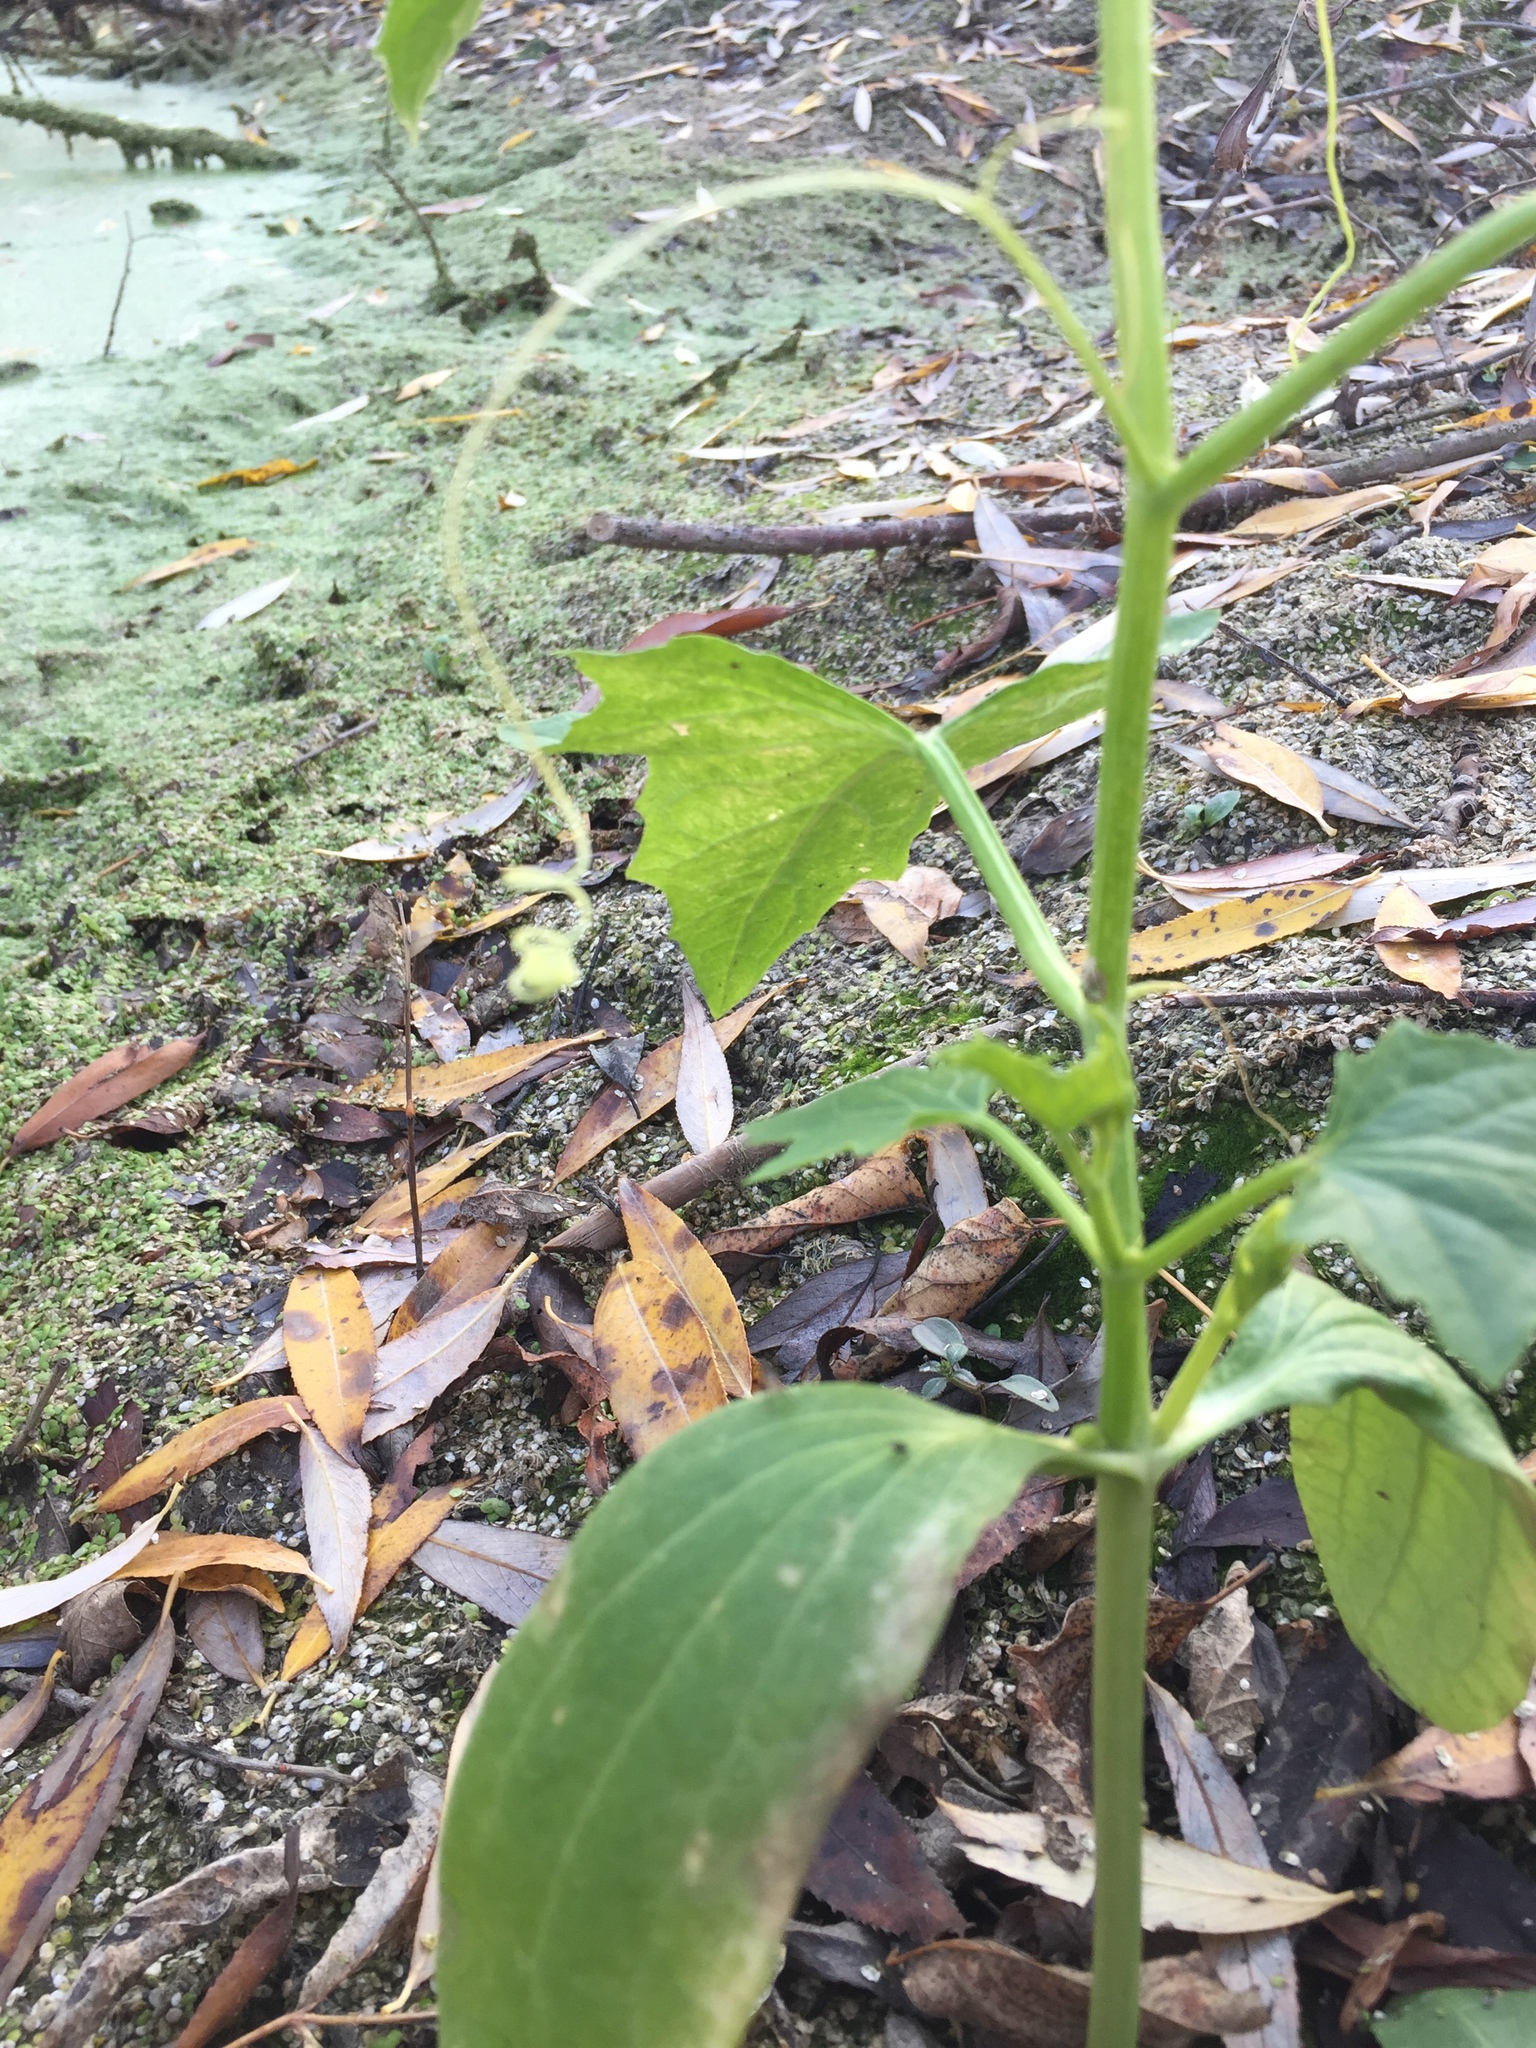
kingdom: Plantae
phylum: Tracheophyta
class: Magnoliopsida
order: Cucurbitales
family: Cucurbitaceae
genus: Echinocystis
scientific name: Echinocystis lobata
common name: Wild cucumber
